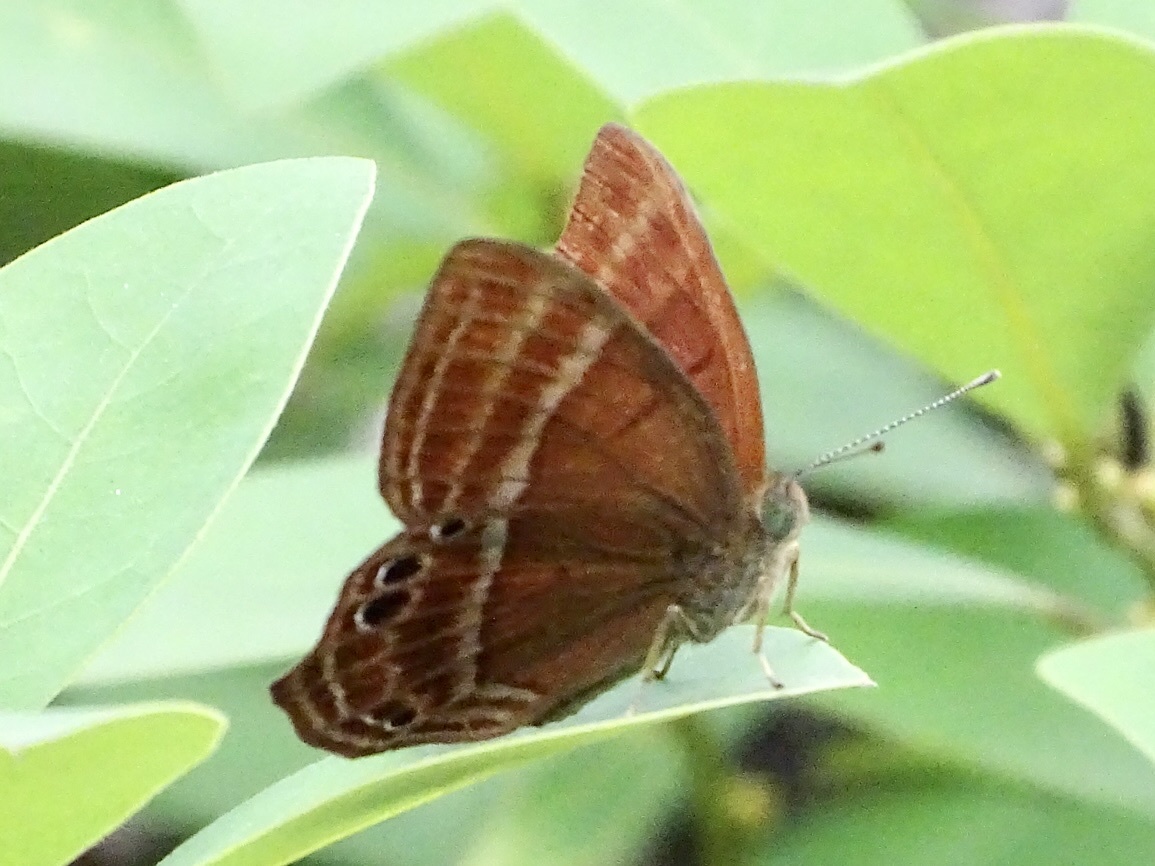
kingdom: Animalia
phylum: Arthropoda
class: Insecta
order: Lepidoptera
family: Lycaenidae
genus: Abisara
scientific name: Abisara echeria
